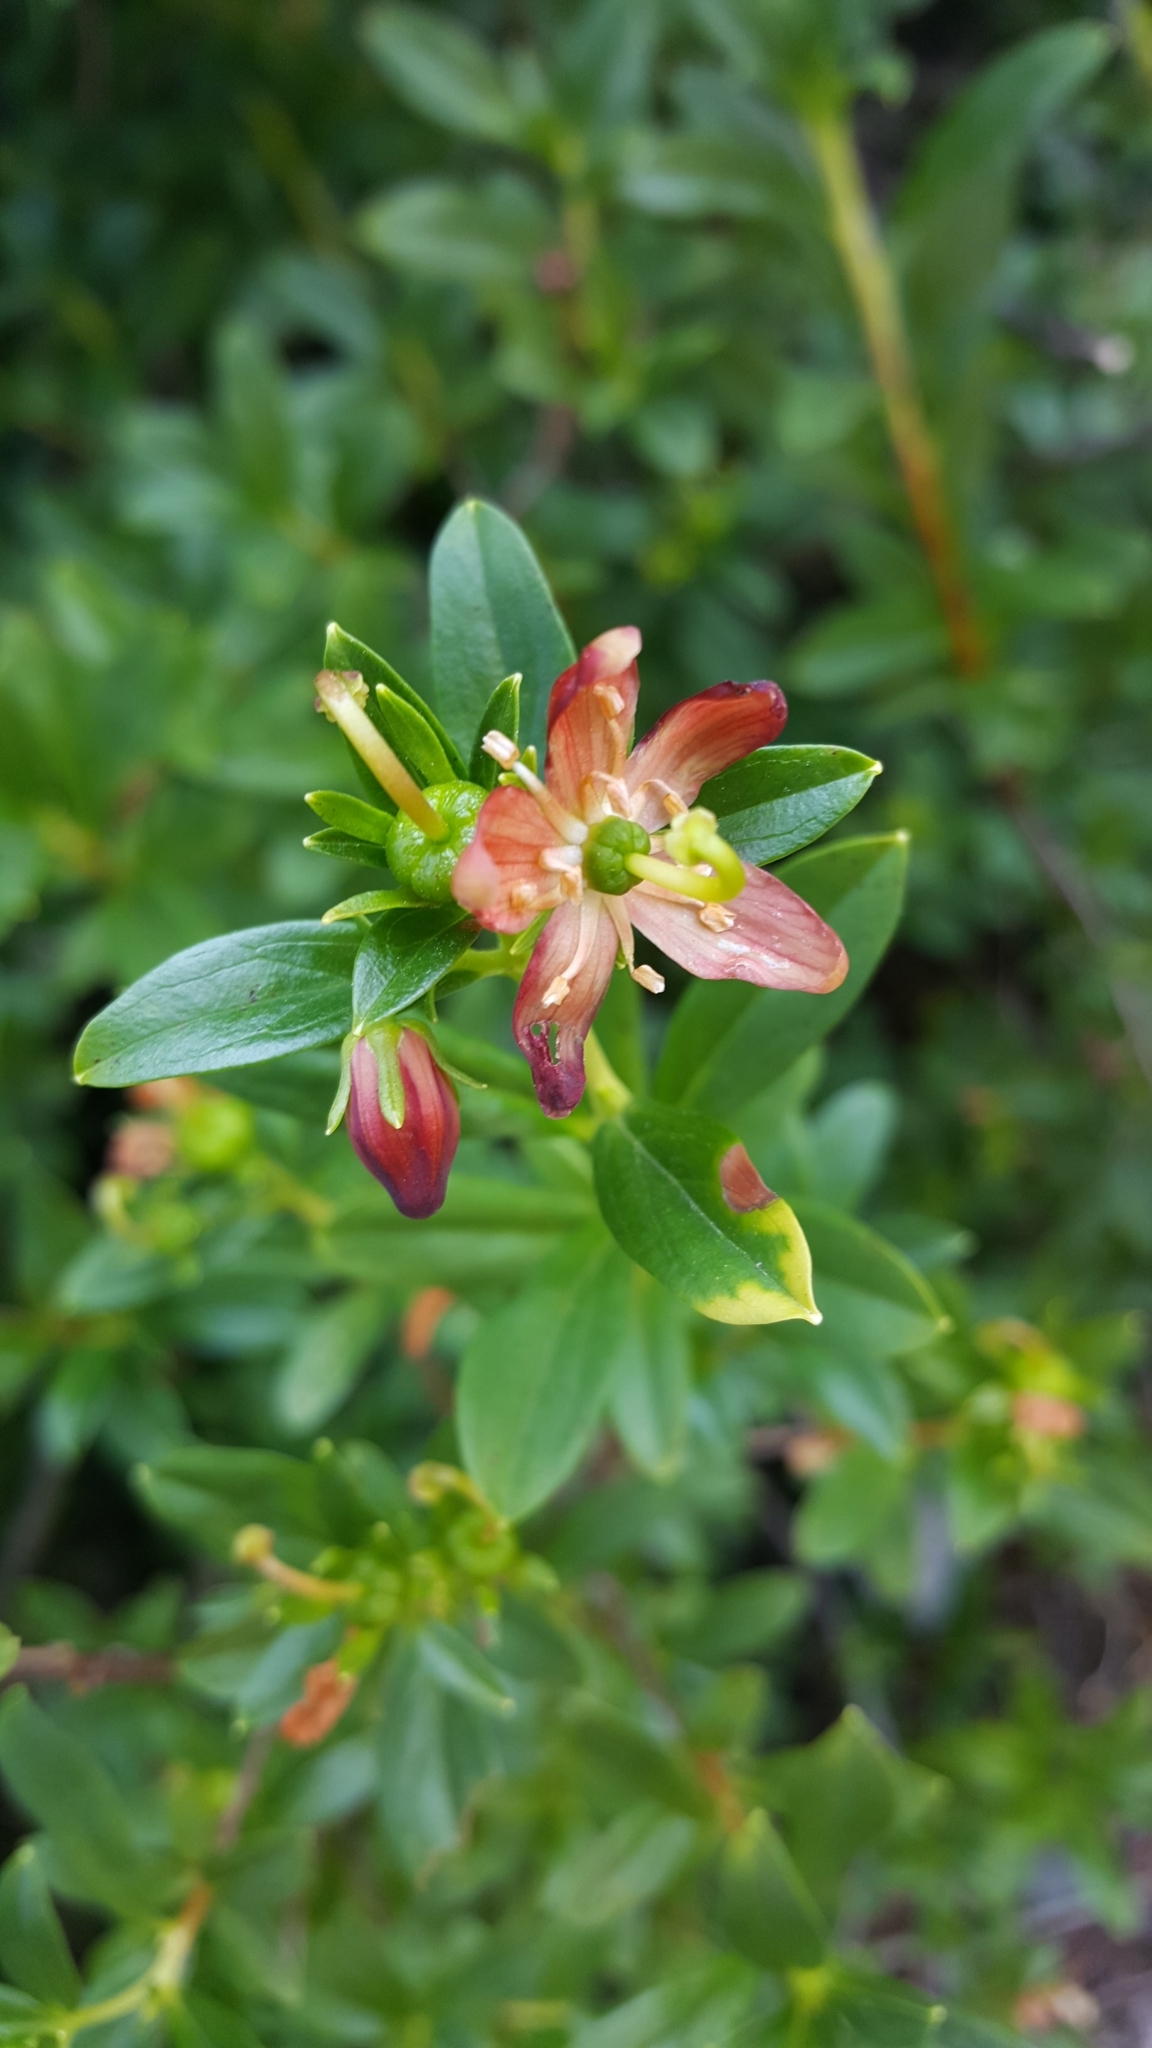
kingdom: Plantae
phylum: Tracheophyta
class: Magnoliopsida
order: Ericales
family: Ericaceae
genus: Elliottia
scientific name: Elliottia pyroliflora
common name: Copperbush
